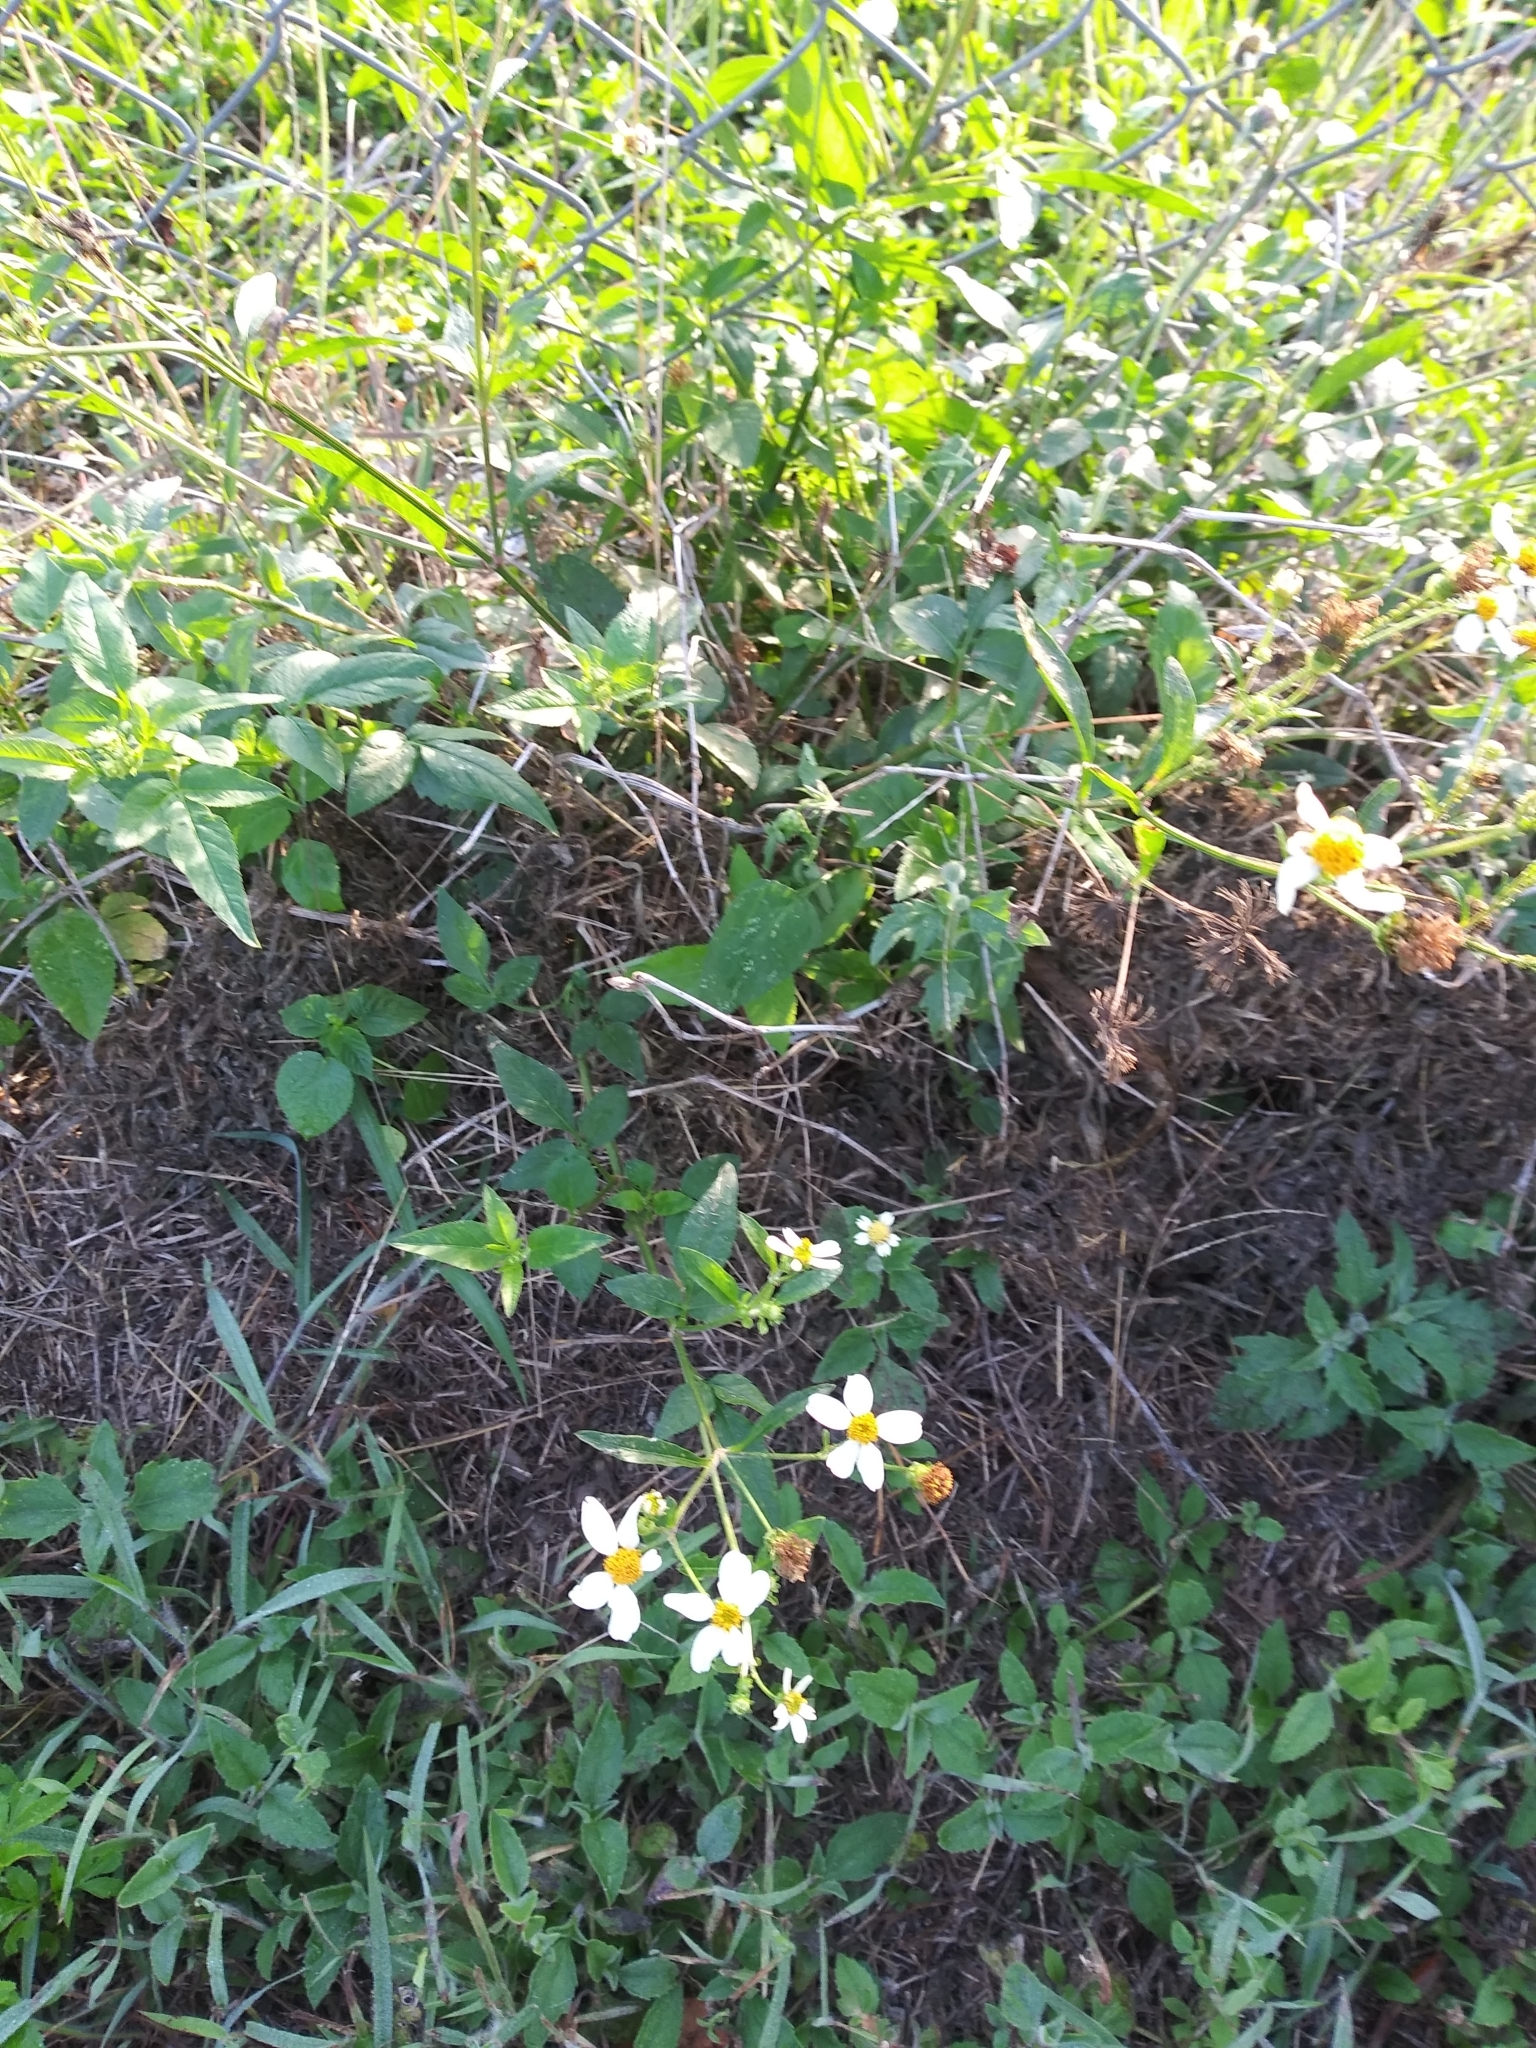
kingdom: Plantae
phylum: Tracheophyta
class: Magnoliopsida
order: Asterales
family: Asteraceae
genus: Bidens
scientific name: Bidens alba
